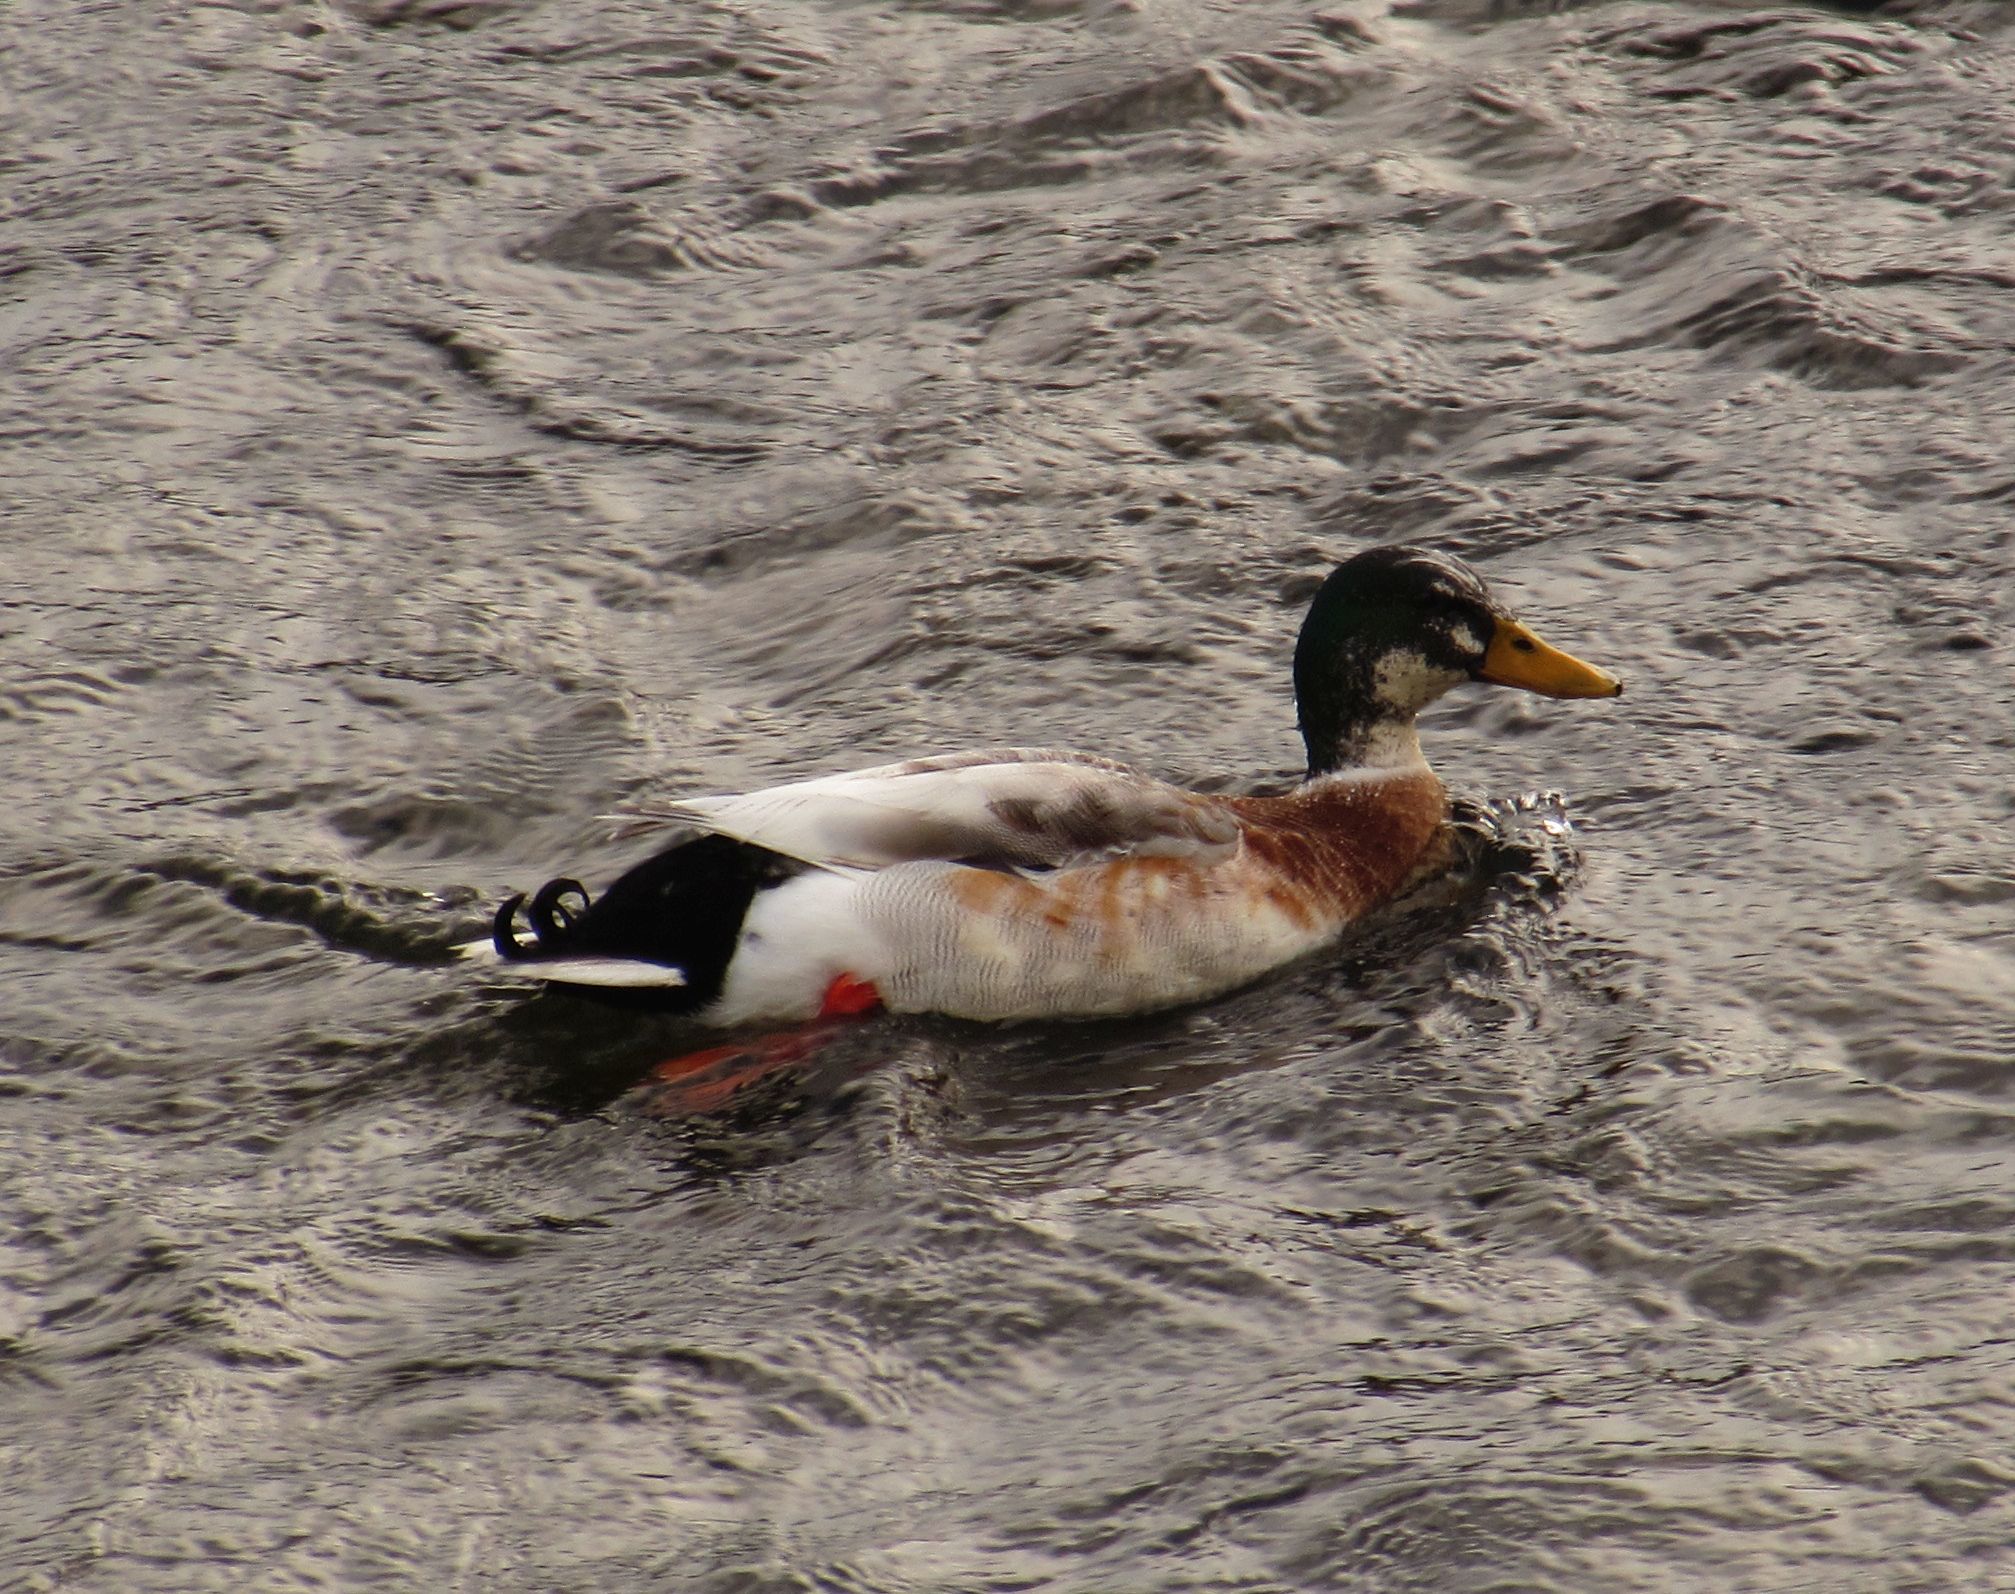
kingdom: Animalia
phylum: Chordata
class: Aves
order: Anseriformes
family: Anatidae
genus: Anas
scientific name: Anas platyrhynchos
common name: Mallard
